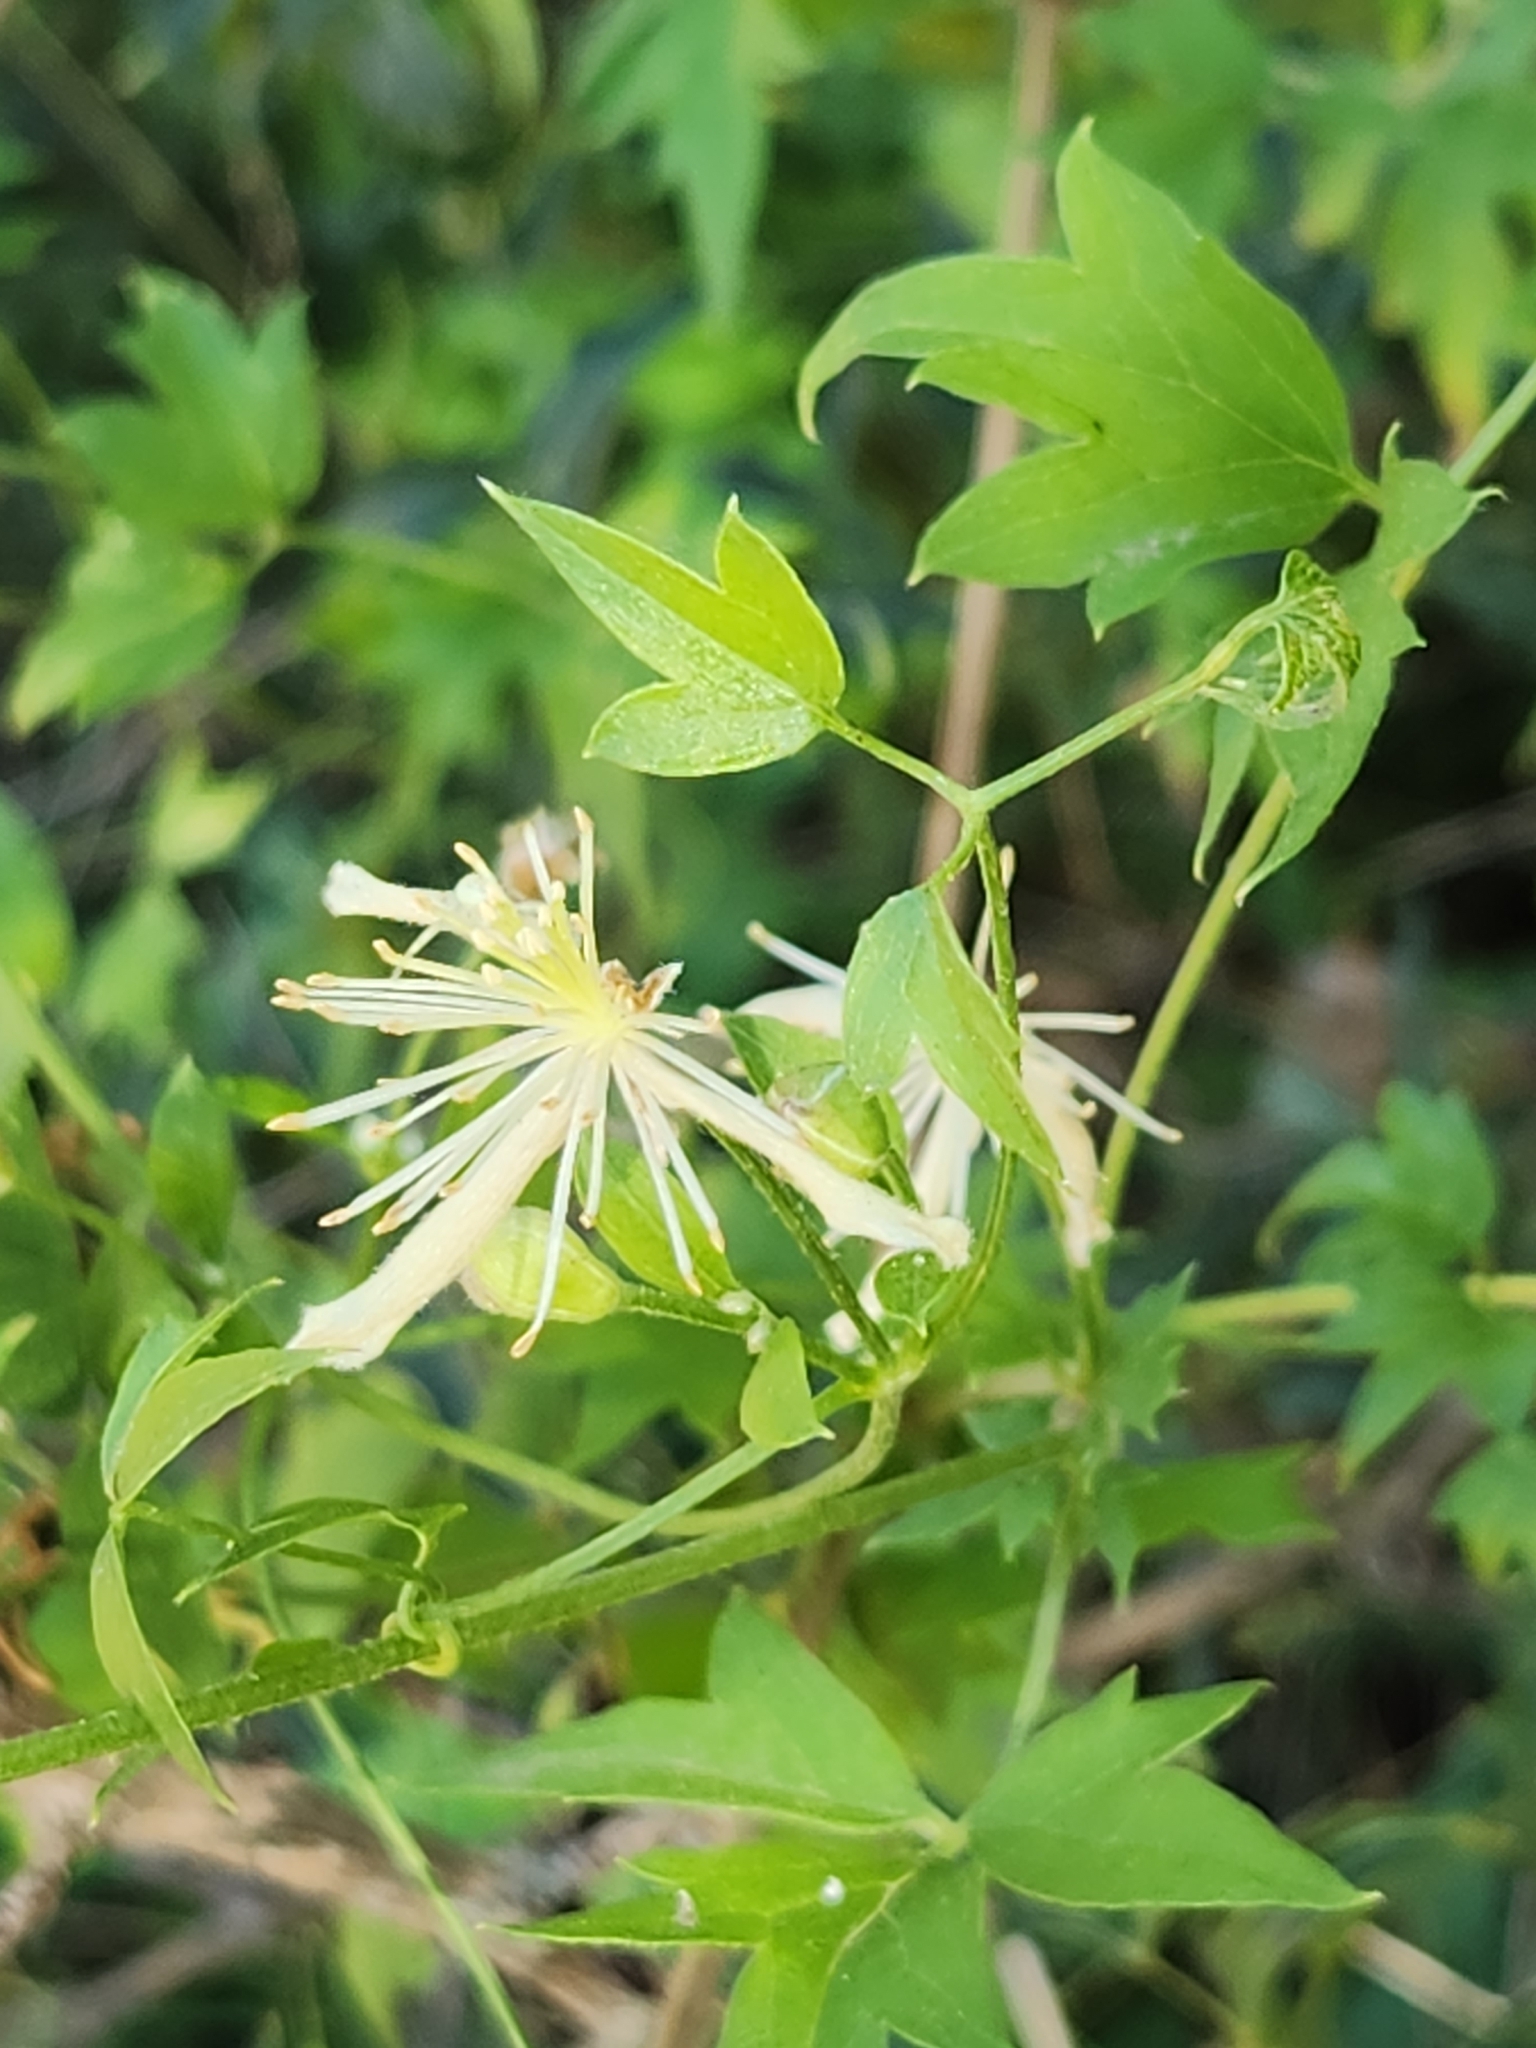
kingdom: Plantae
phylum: Tracheophyta
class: Magnoliopsida
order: Ranunculales
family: Ranunculaceae
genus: Clematis
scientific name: Clematis drummondii
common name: Texas virgin's bower
